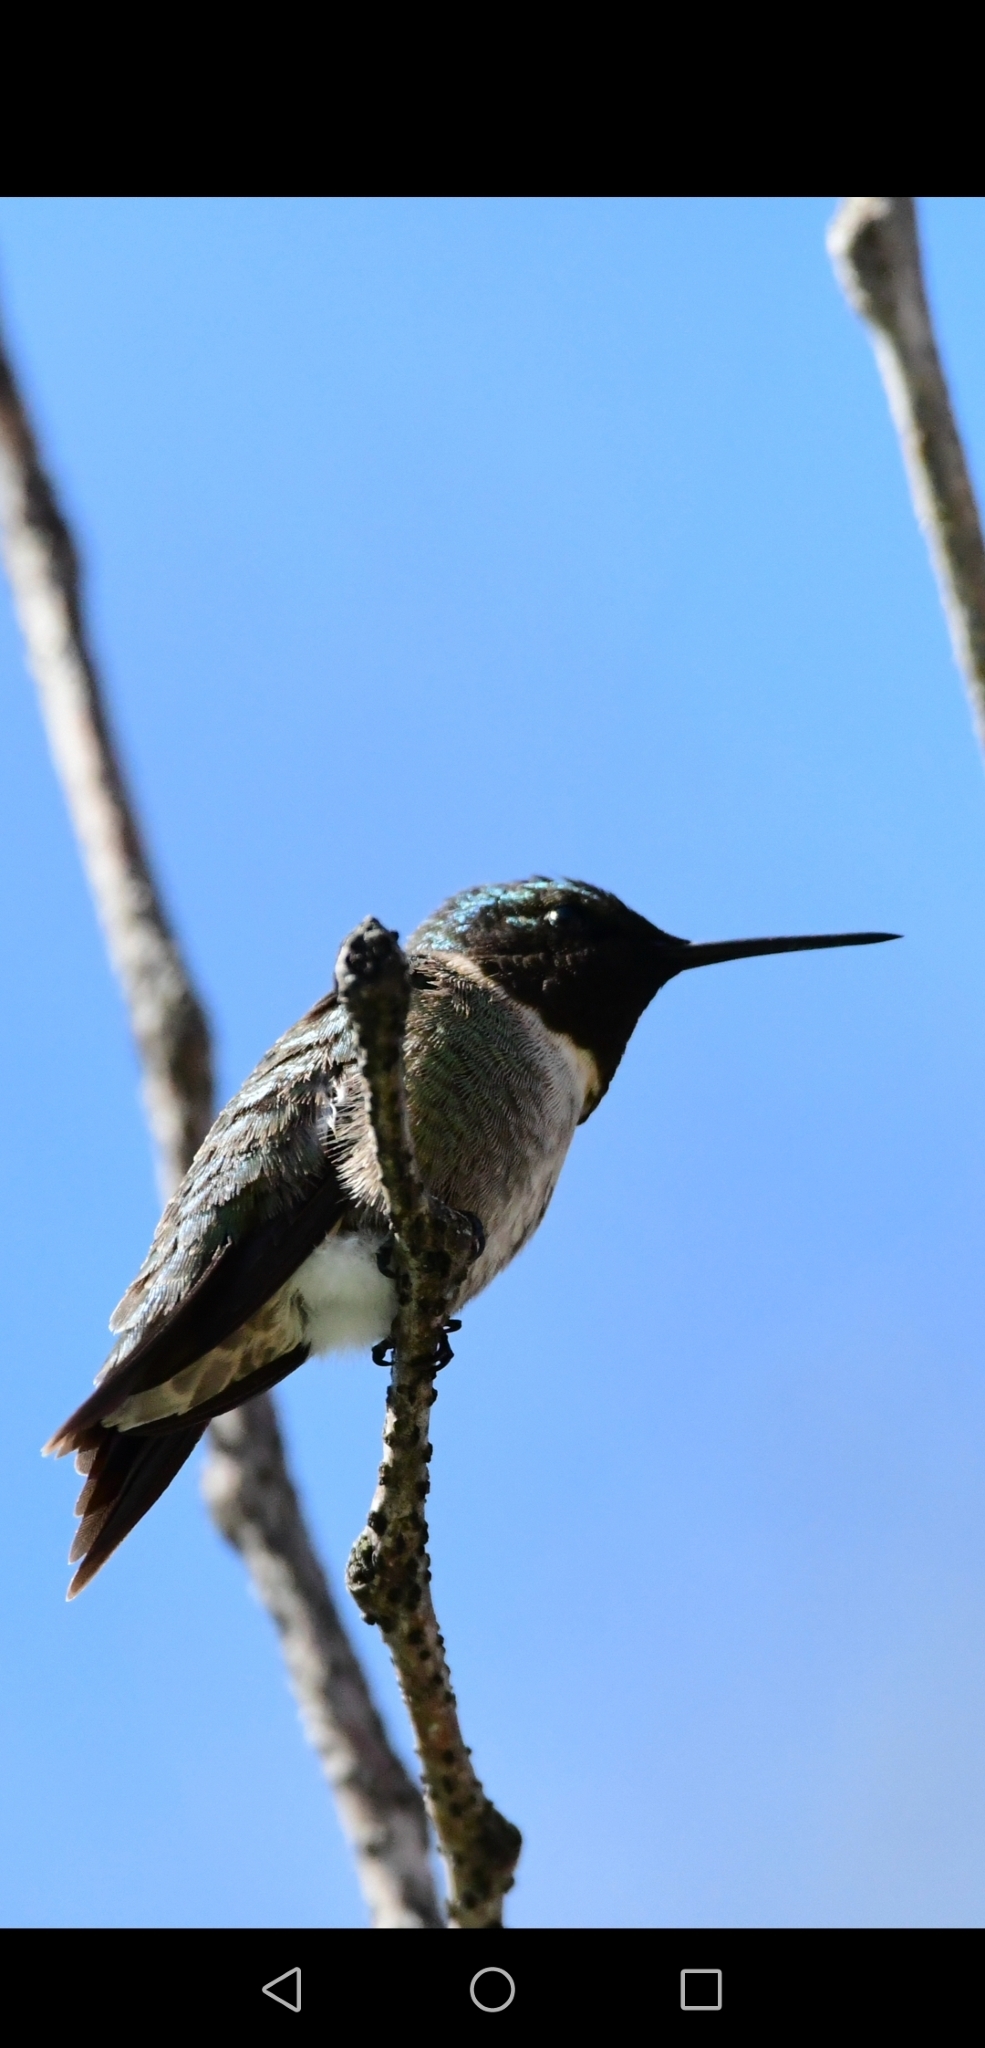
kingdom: Animalia
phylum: Chordata
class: Aves
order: Apodiformes
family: Trochilidae
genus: Archilochus
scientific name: Archilochus colubris
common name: Ruby-throated hummingbird
